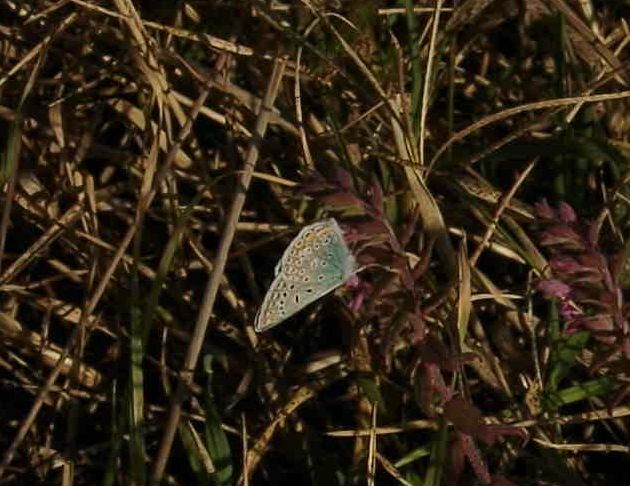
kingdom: Animalia
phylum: Arthropoda
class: Insecta
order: Lepidoptera
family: Lycaenidae
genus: Polyommatus
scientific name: Polyommatus icarus
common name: Common blue
